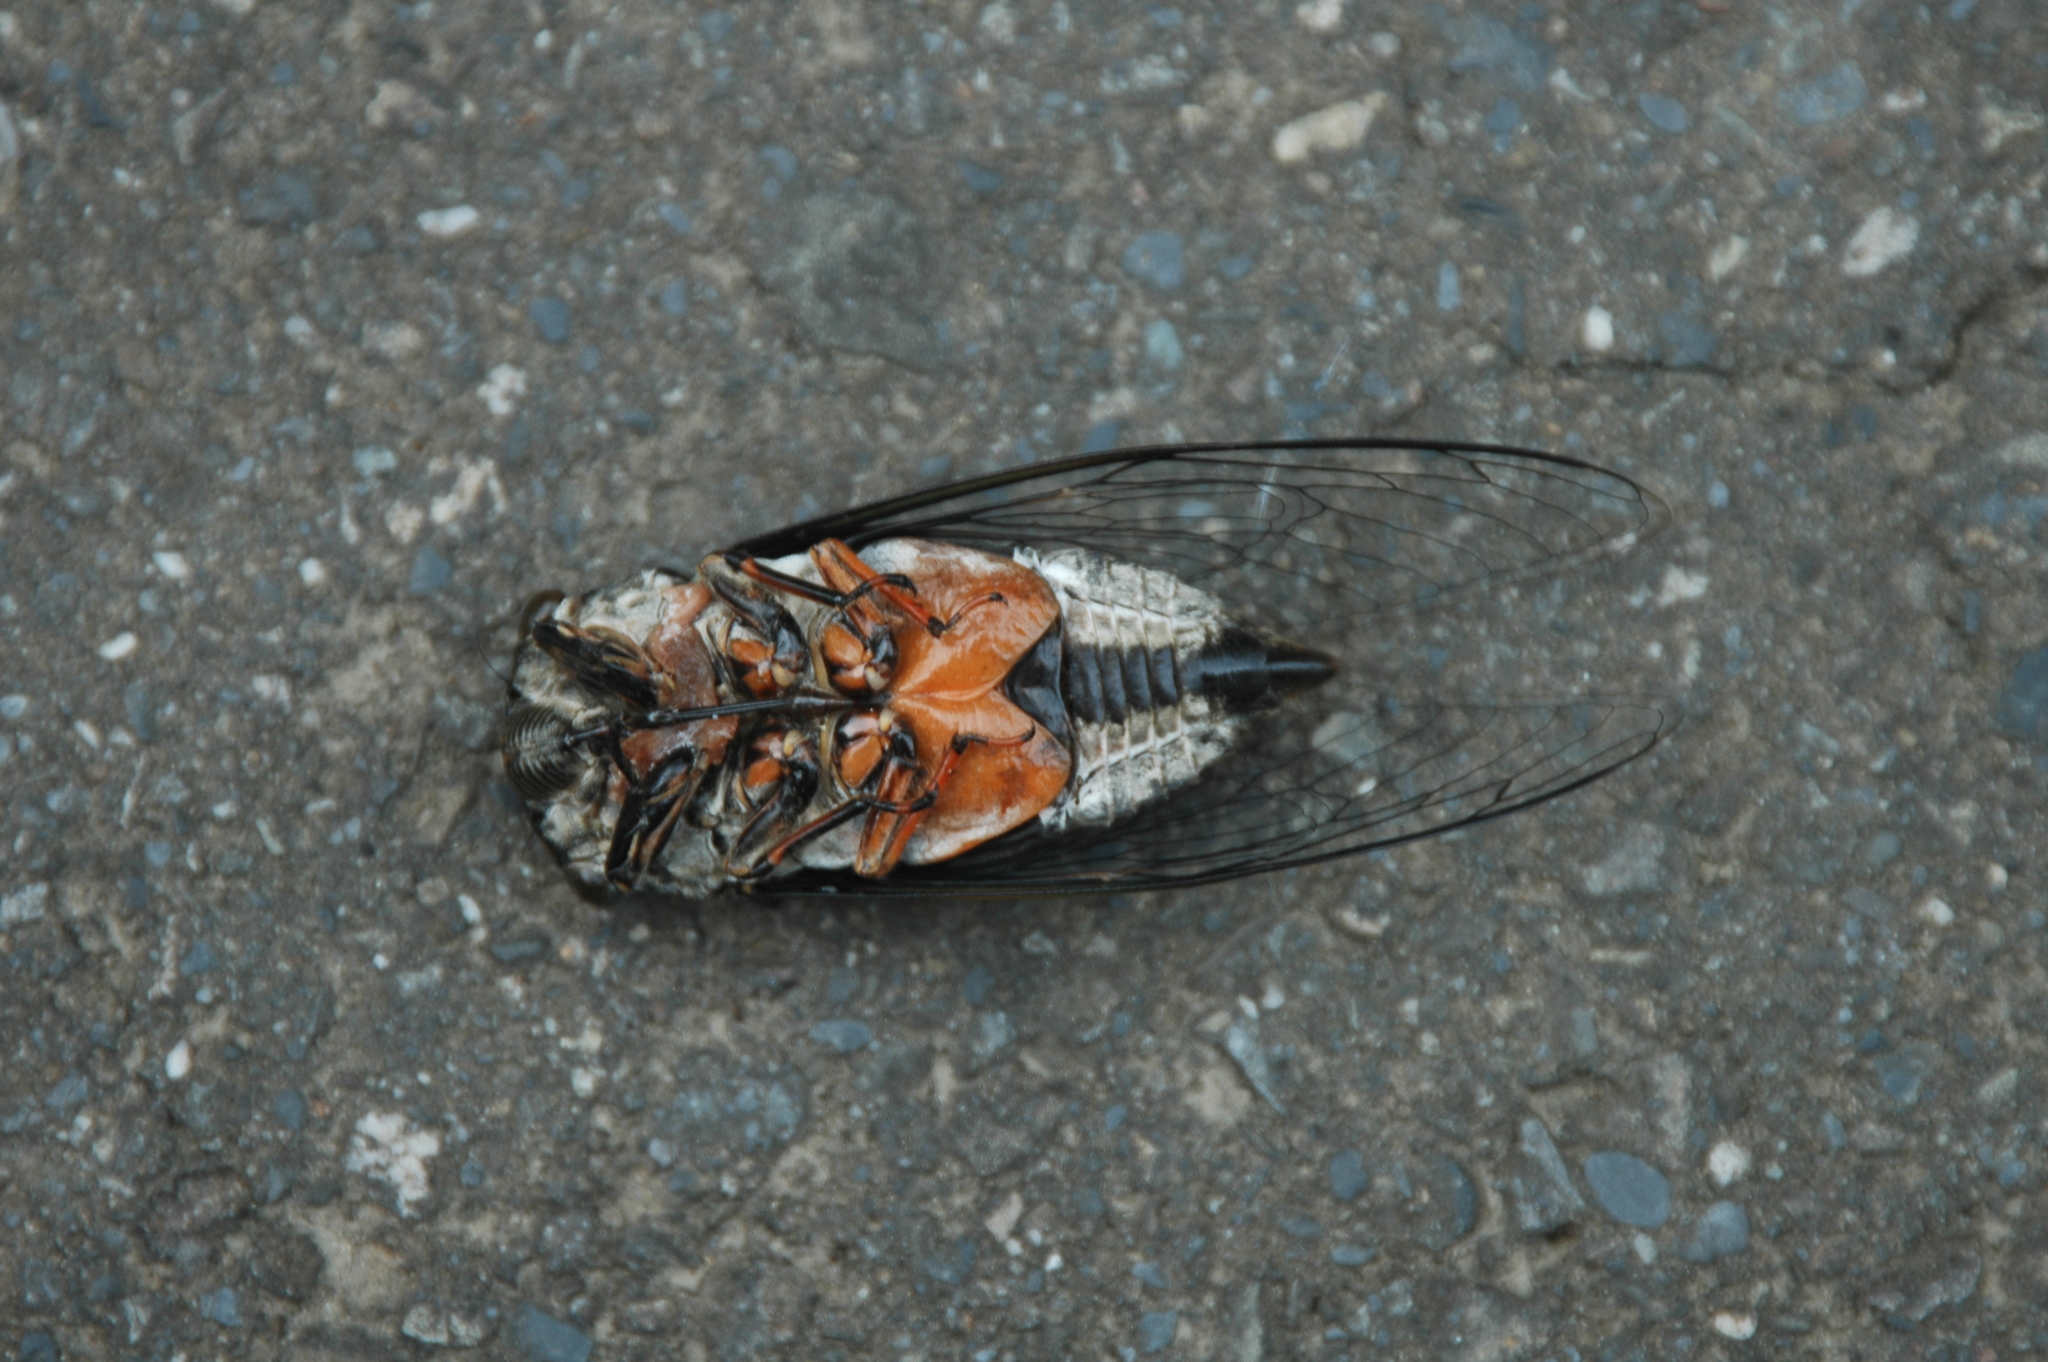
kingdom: Animalia
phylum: Arthropoda
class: Insecta
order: Hemiptera
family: Cicadidae
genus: Cryptotympana
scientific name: Cryptotympana takasagona
